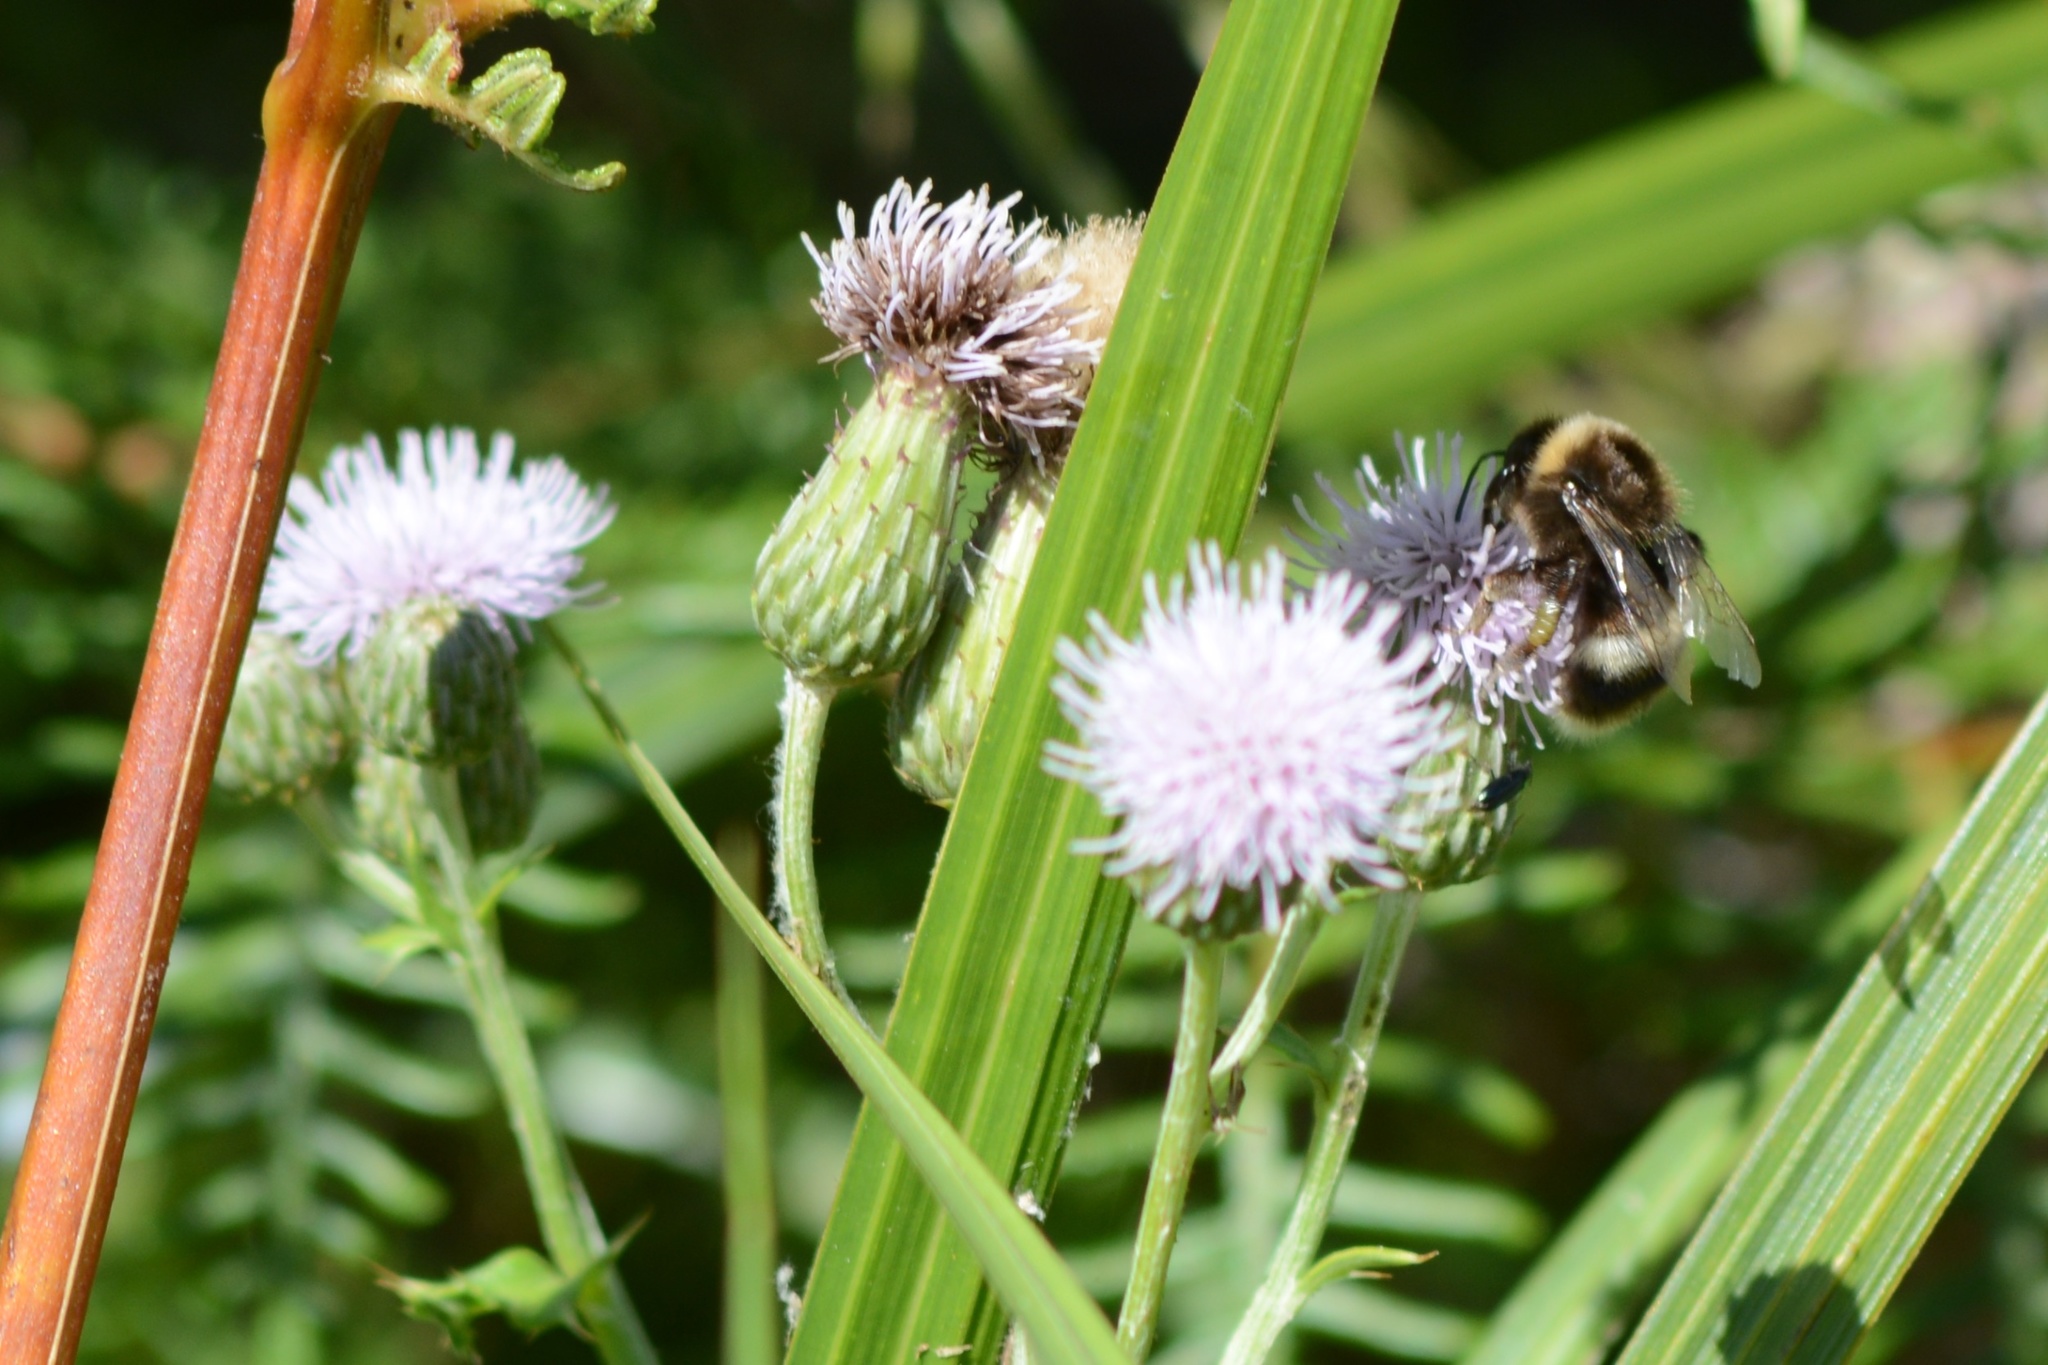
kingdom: Animalia
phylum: Arthropoda
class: Insecta
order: Hymenoptera
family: Apidae
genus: Bombus
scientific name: Bombus terrestris
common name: Buff-tailed bumblebee
